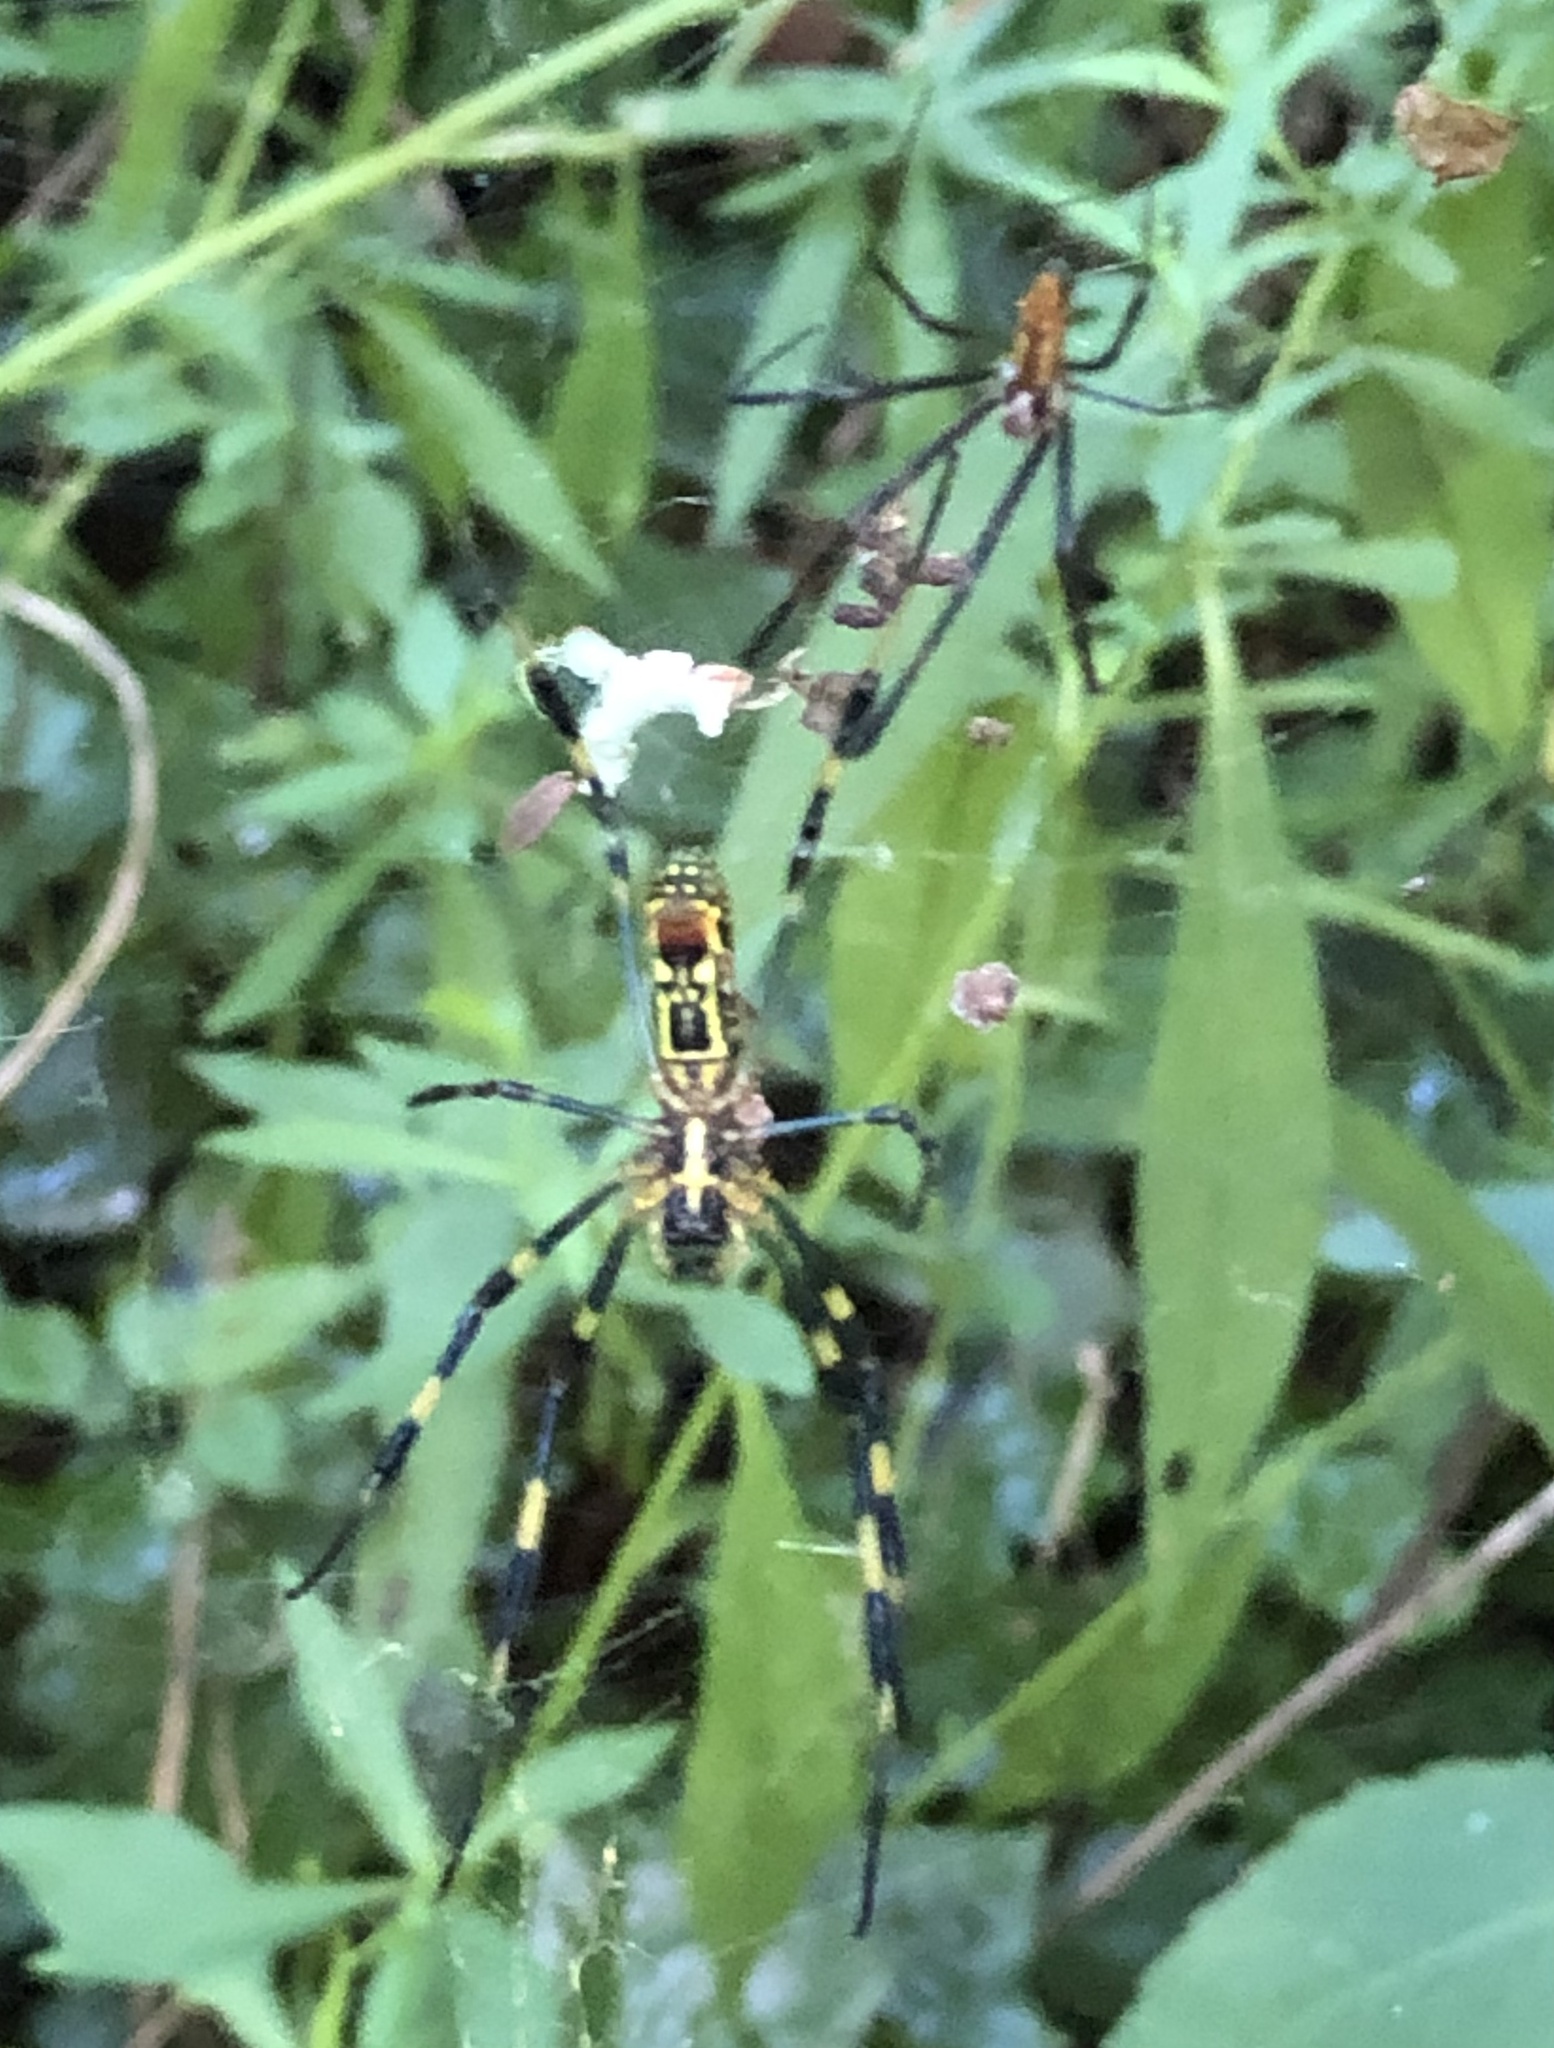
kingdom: Animalia
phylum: Arthropoda
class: Arachnida
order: Araneae
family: Araneidae
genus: Trichonephila
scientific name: Trichonephila clavata
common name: Jorō spider
